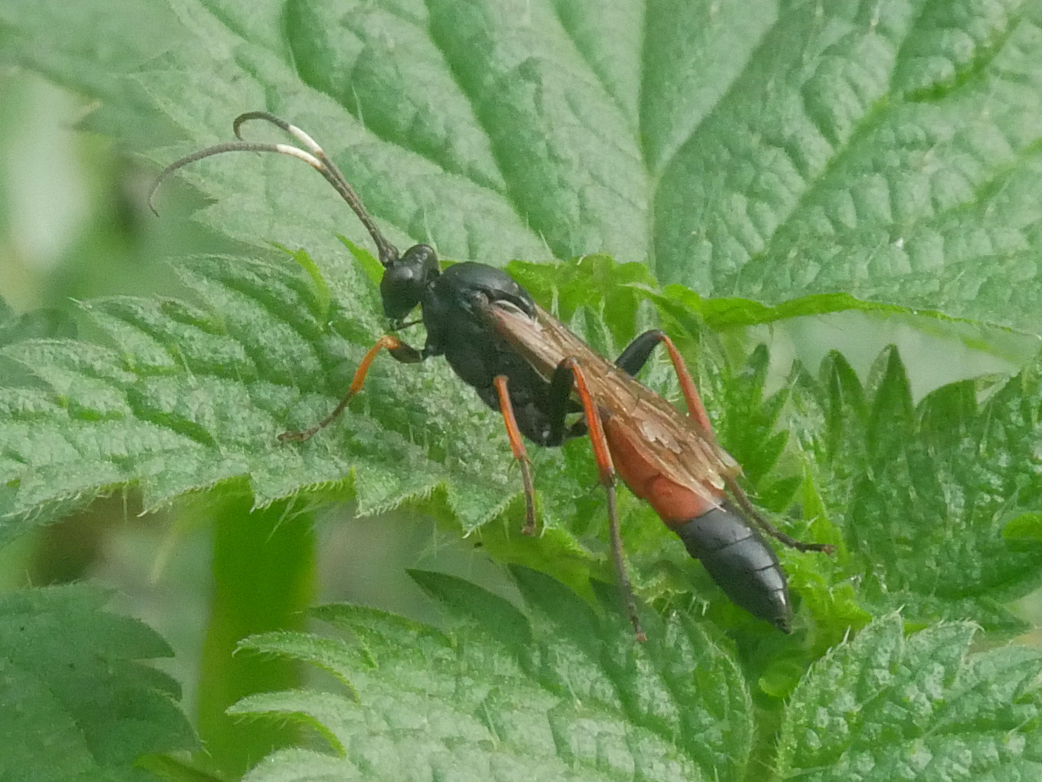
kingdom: Animalia
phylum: Arthropoda
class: Insecta
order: Hymenoptera
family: Ichneumonidae
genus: Stenichneumon
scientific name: Stenichneumon culpator
